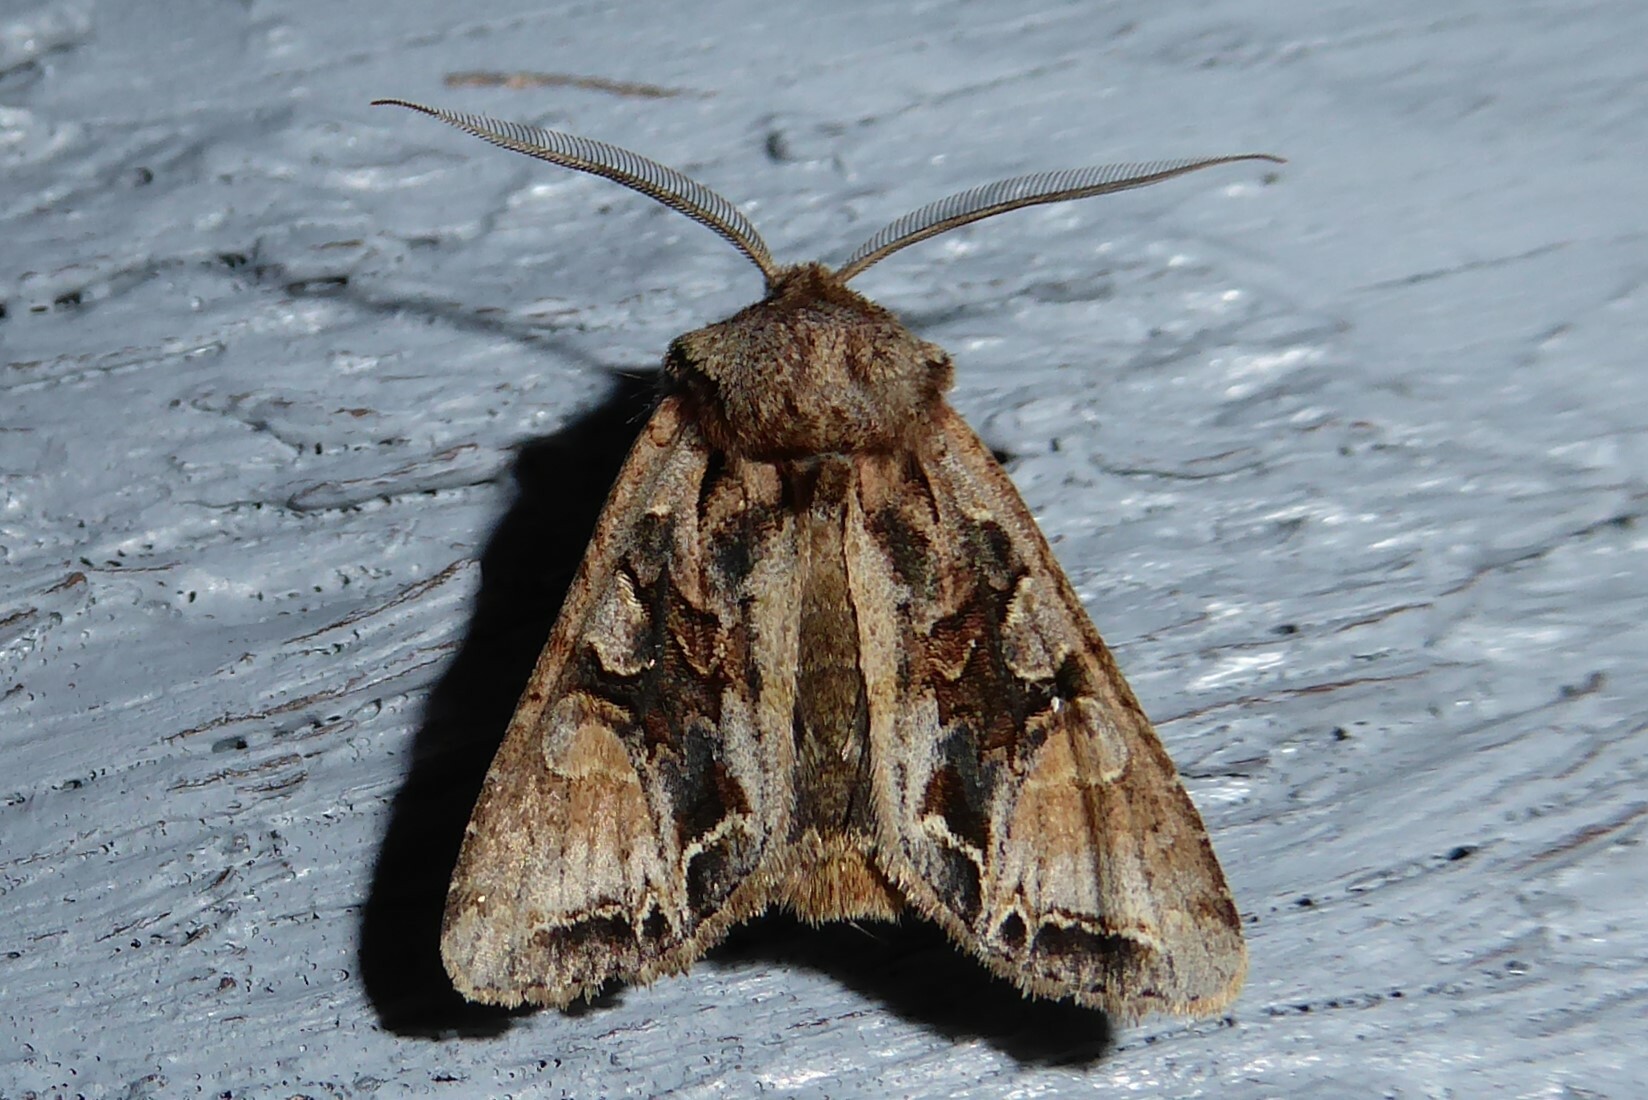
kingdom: Animalia
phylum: Arthropoda
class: Insecta
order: Lepidoptera
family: Noctuidae
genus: Ichneutica
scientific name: Ichneutica
